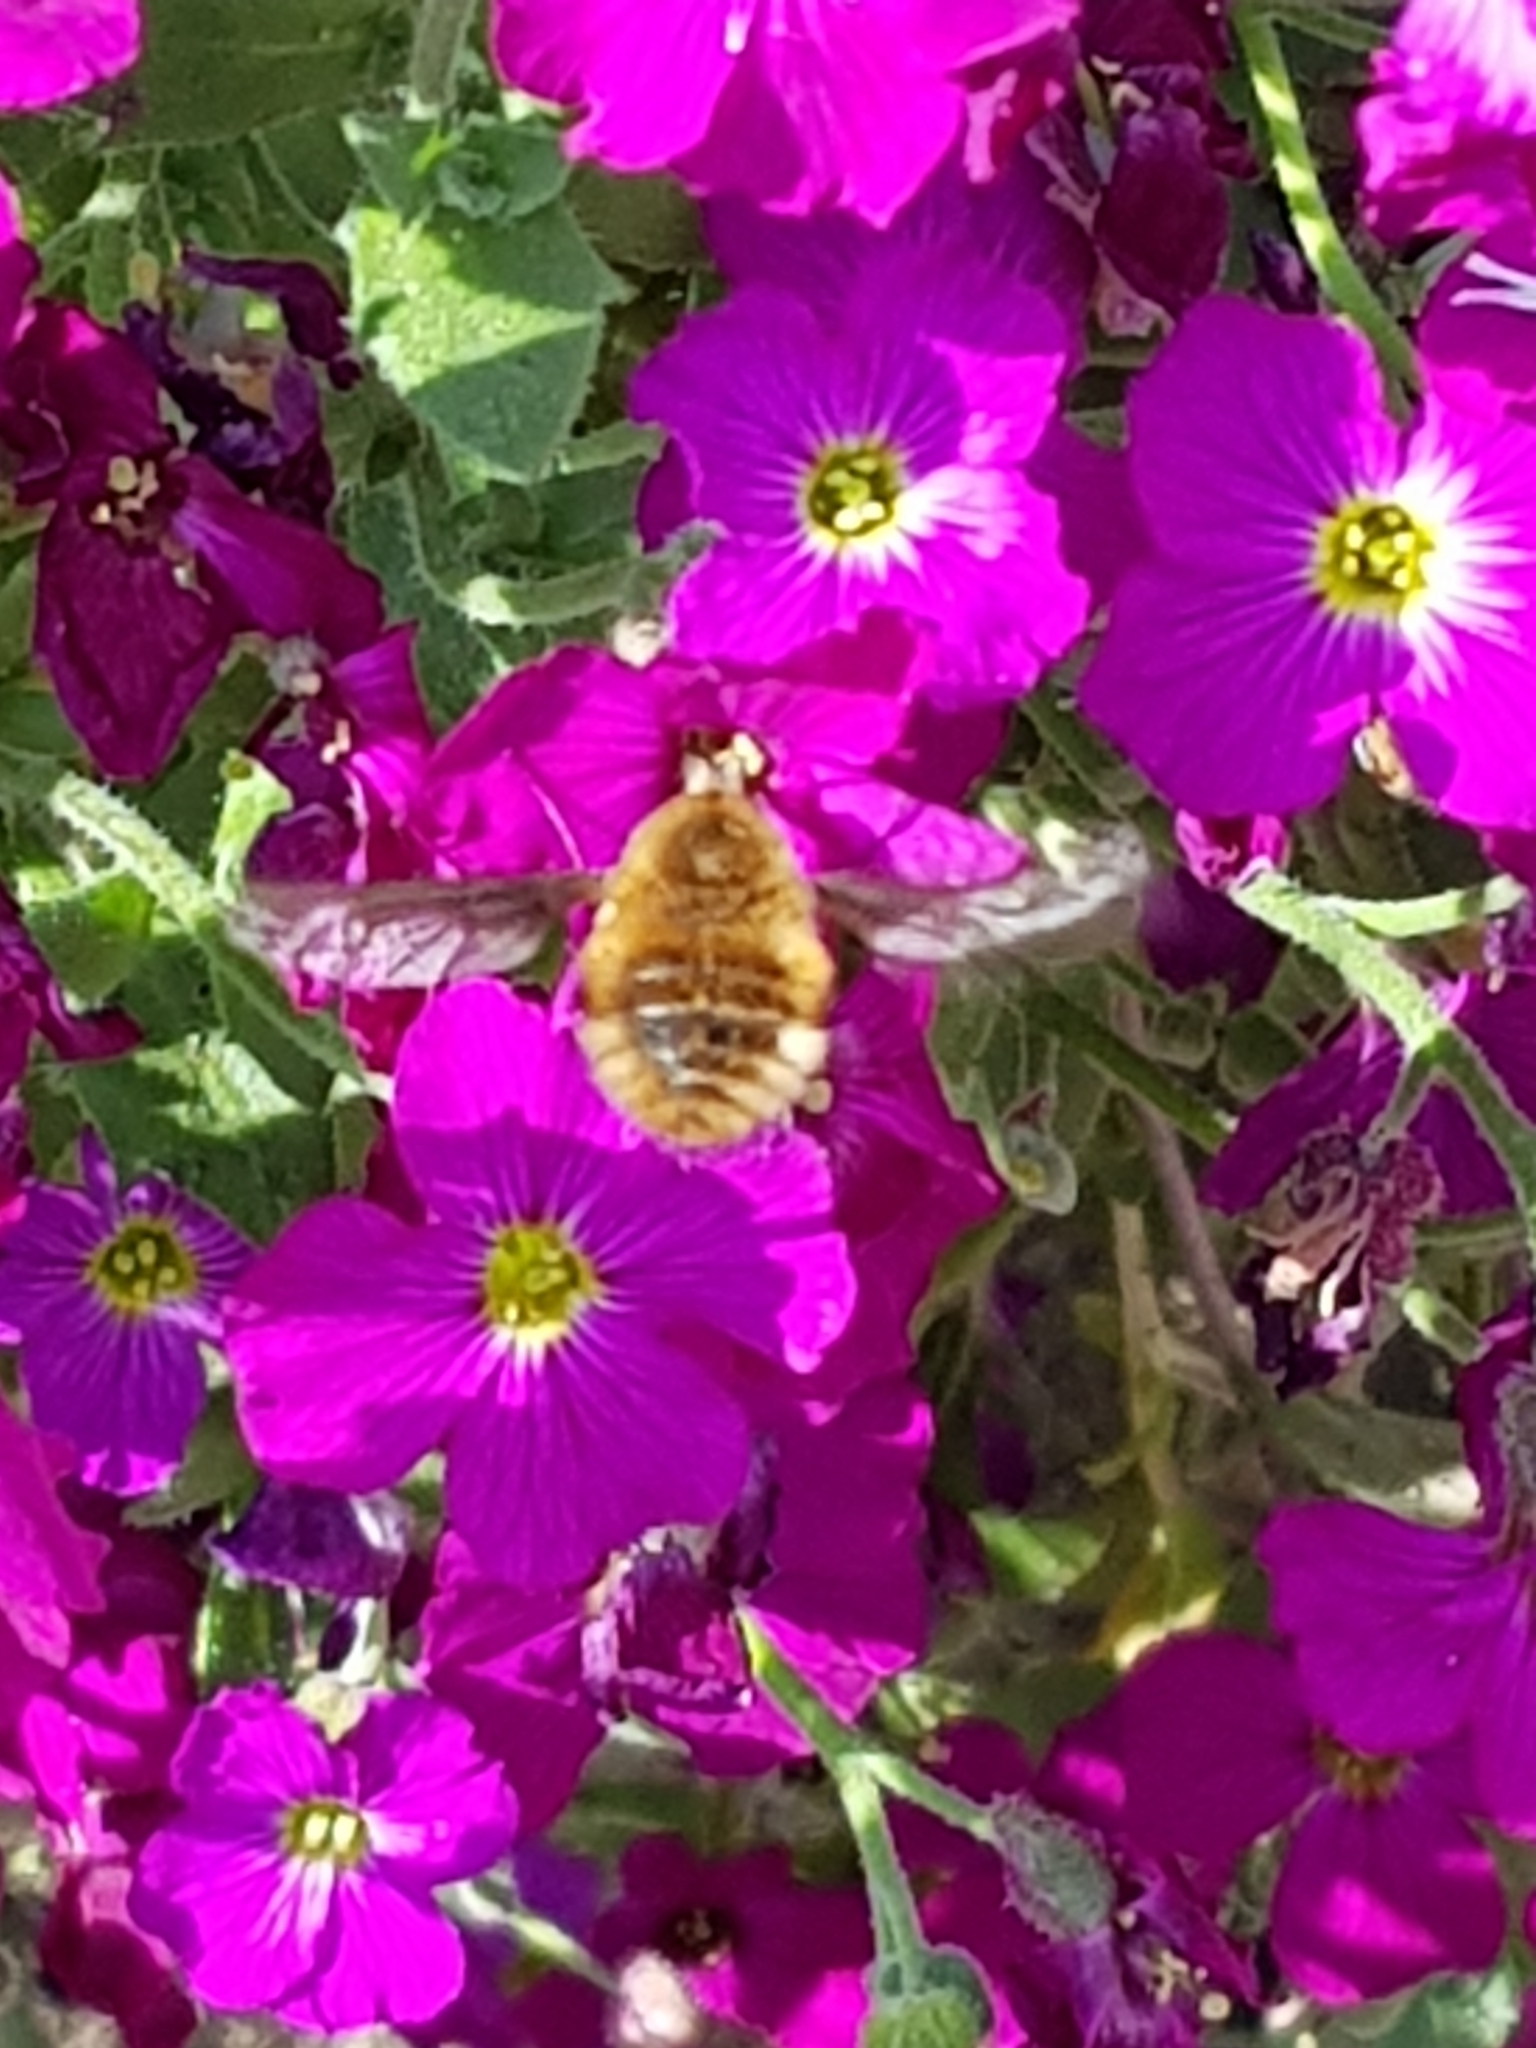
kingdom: Animalia
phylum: Arthropoda
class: Insecta
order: Diptera
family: Bombyliidae
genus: Bombylius
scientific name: Bombylius major
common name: Bee fly
